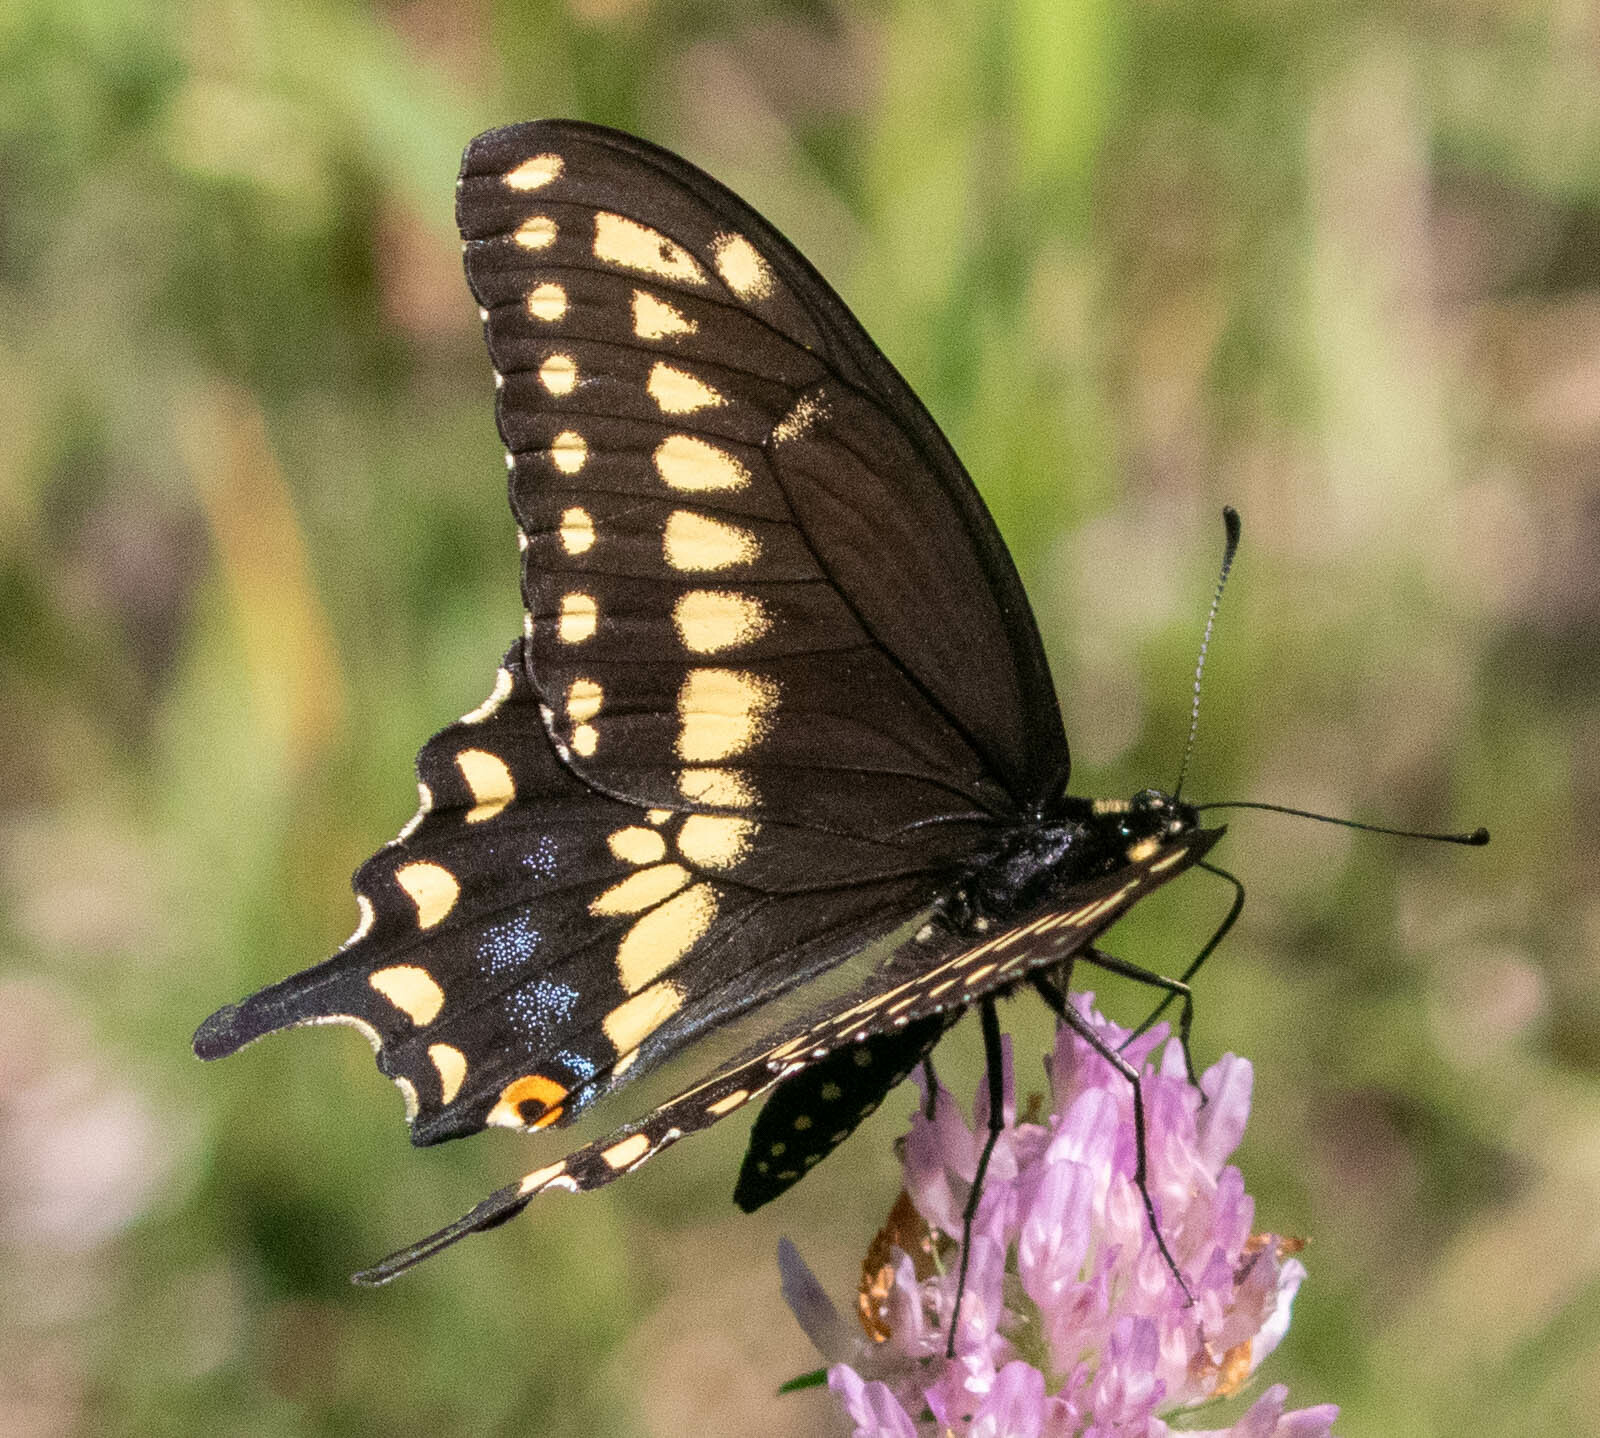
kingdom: Animalia
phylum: Arthropoda
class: Insecta
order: Lepidoptera
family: Papilionidae
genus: Papilio
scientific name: Papilio polyxenes
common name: Black swallowtail
